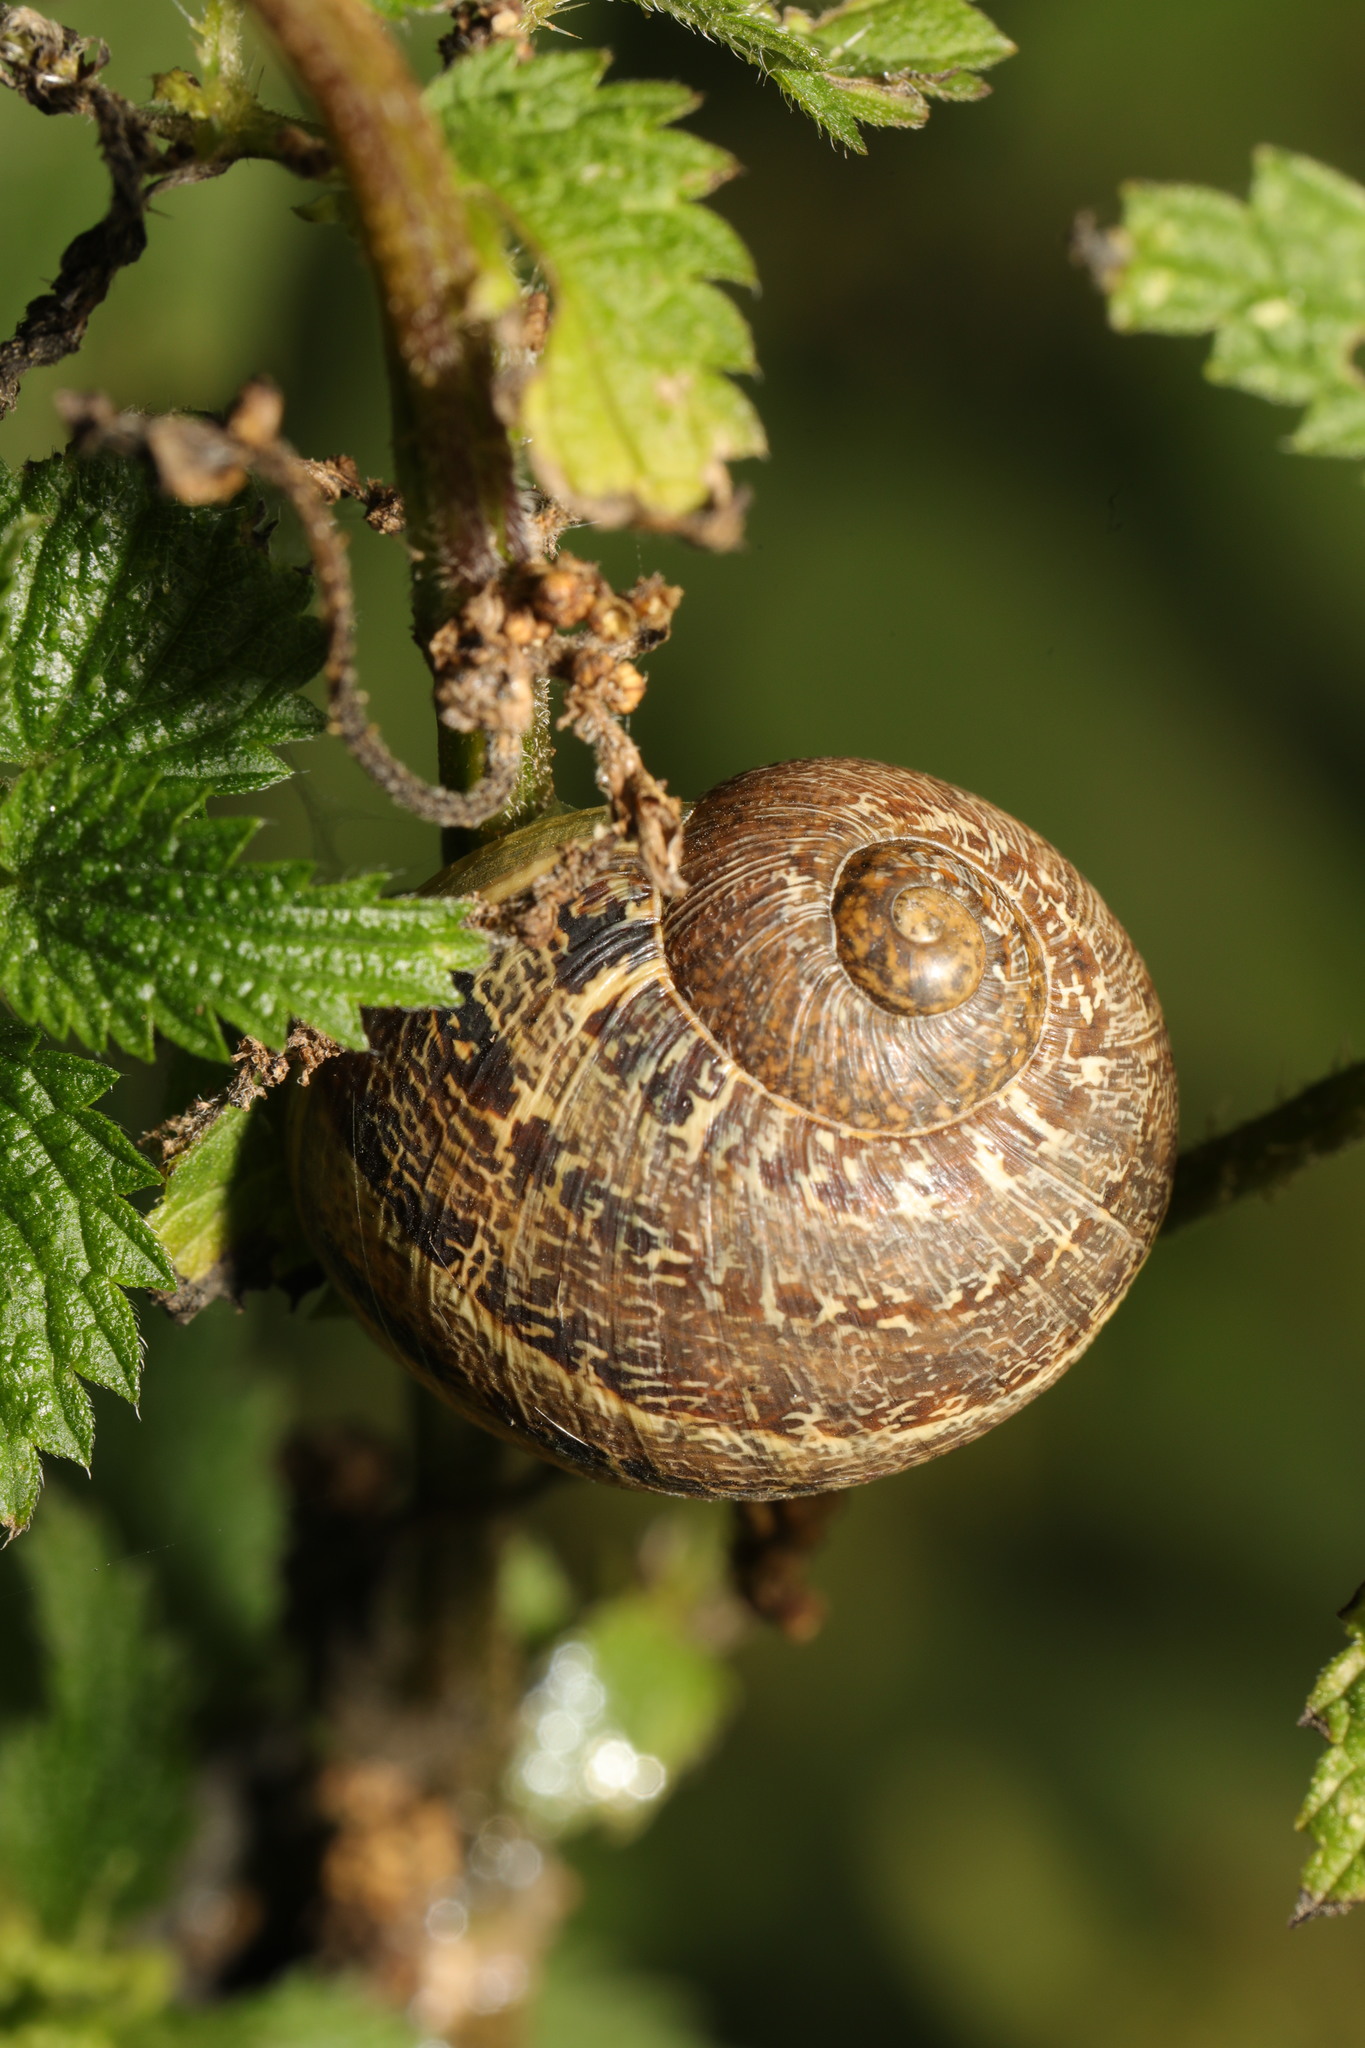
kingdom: Animalia
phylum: Mollusca
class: Gastropoda
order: Stylommatophora
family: Helicidae
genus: Cornu
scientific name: Cornu aspersum
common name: Brown garden snail
